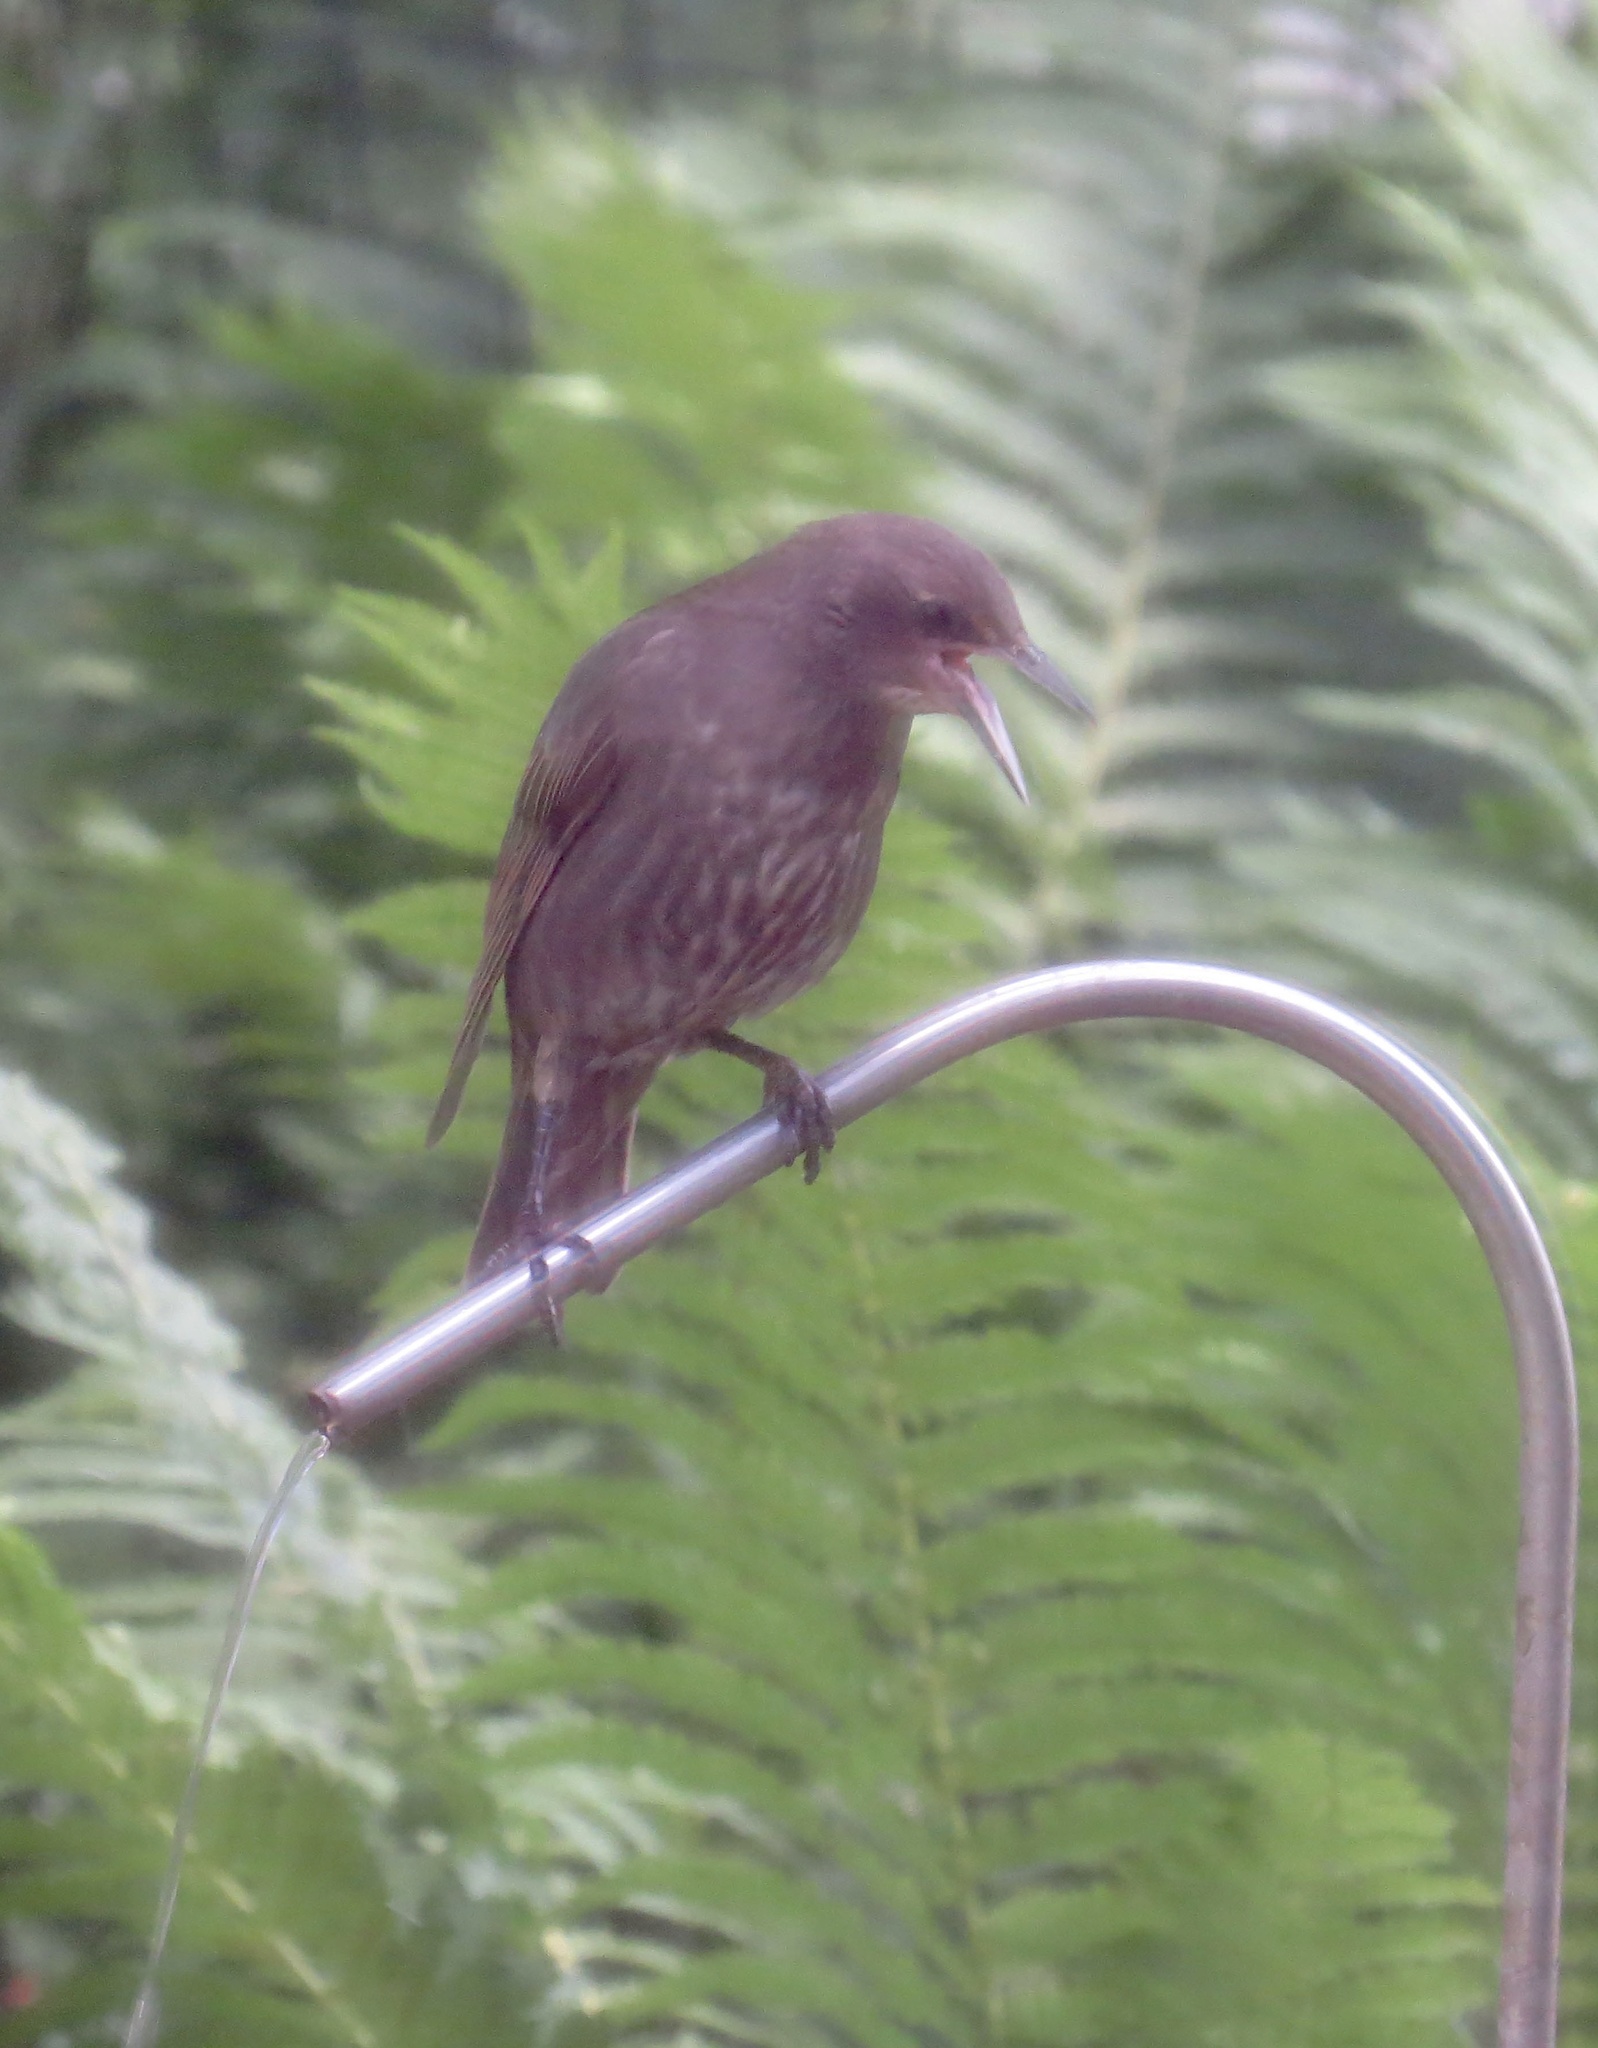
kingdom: Animalia
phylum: Chordata
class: Aves
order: Passeriformes
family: Sturnidae
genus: Sturnus
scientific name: Sturnus vulgaris
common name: Common starling
